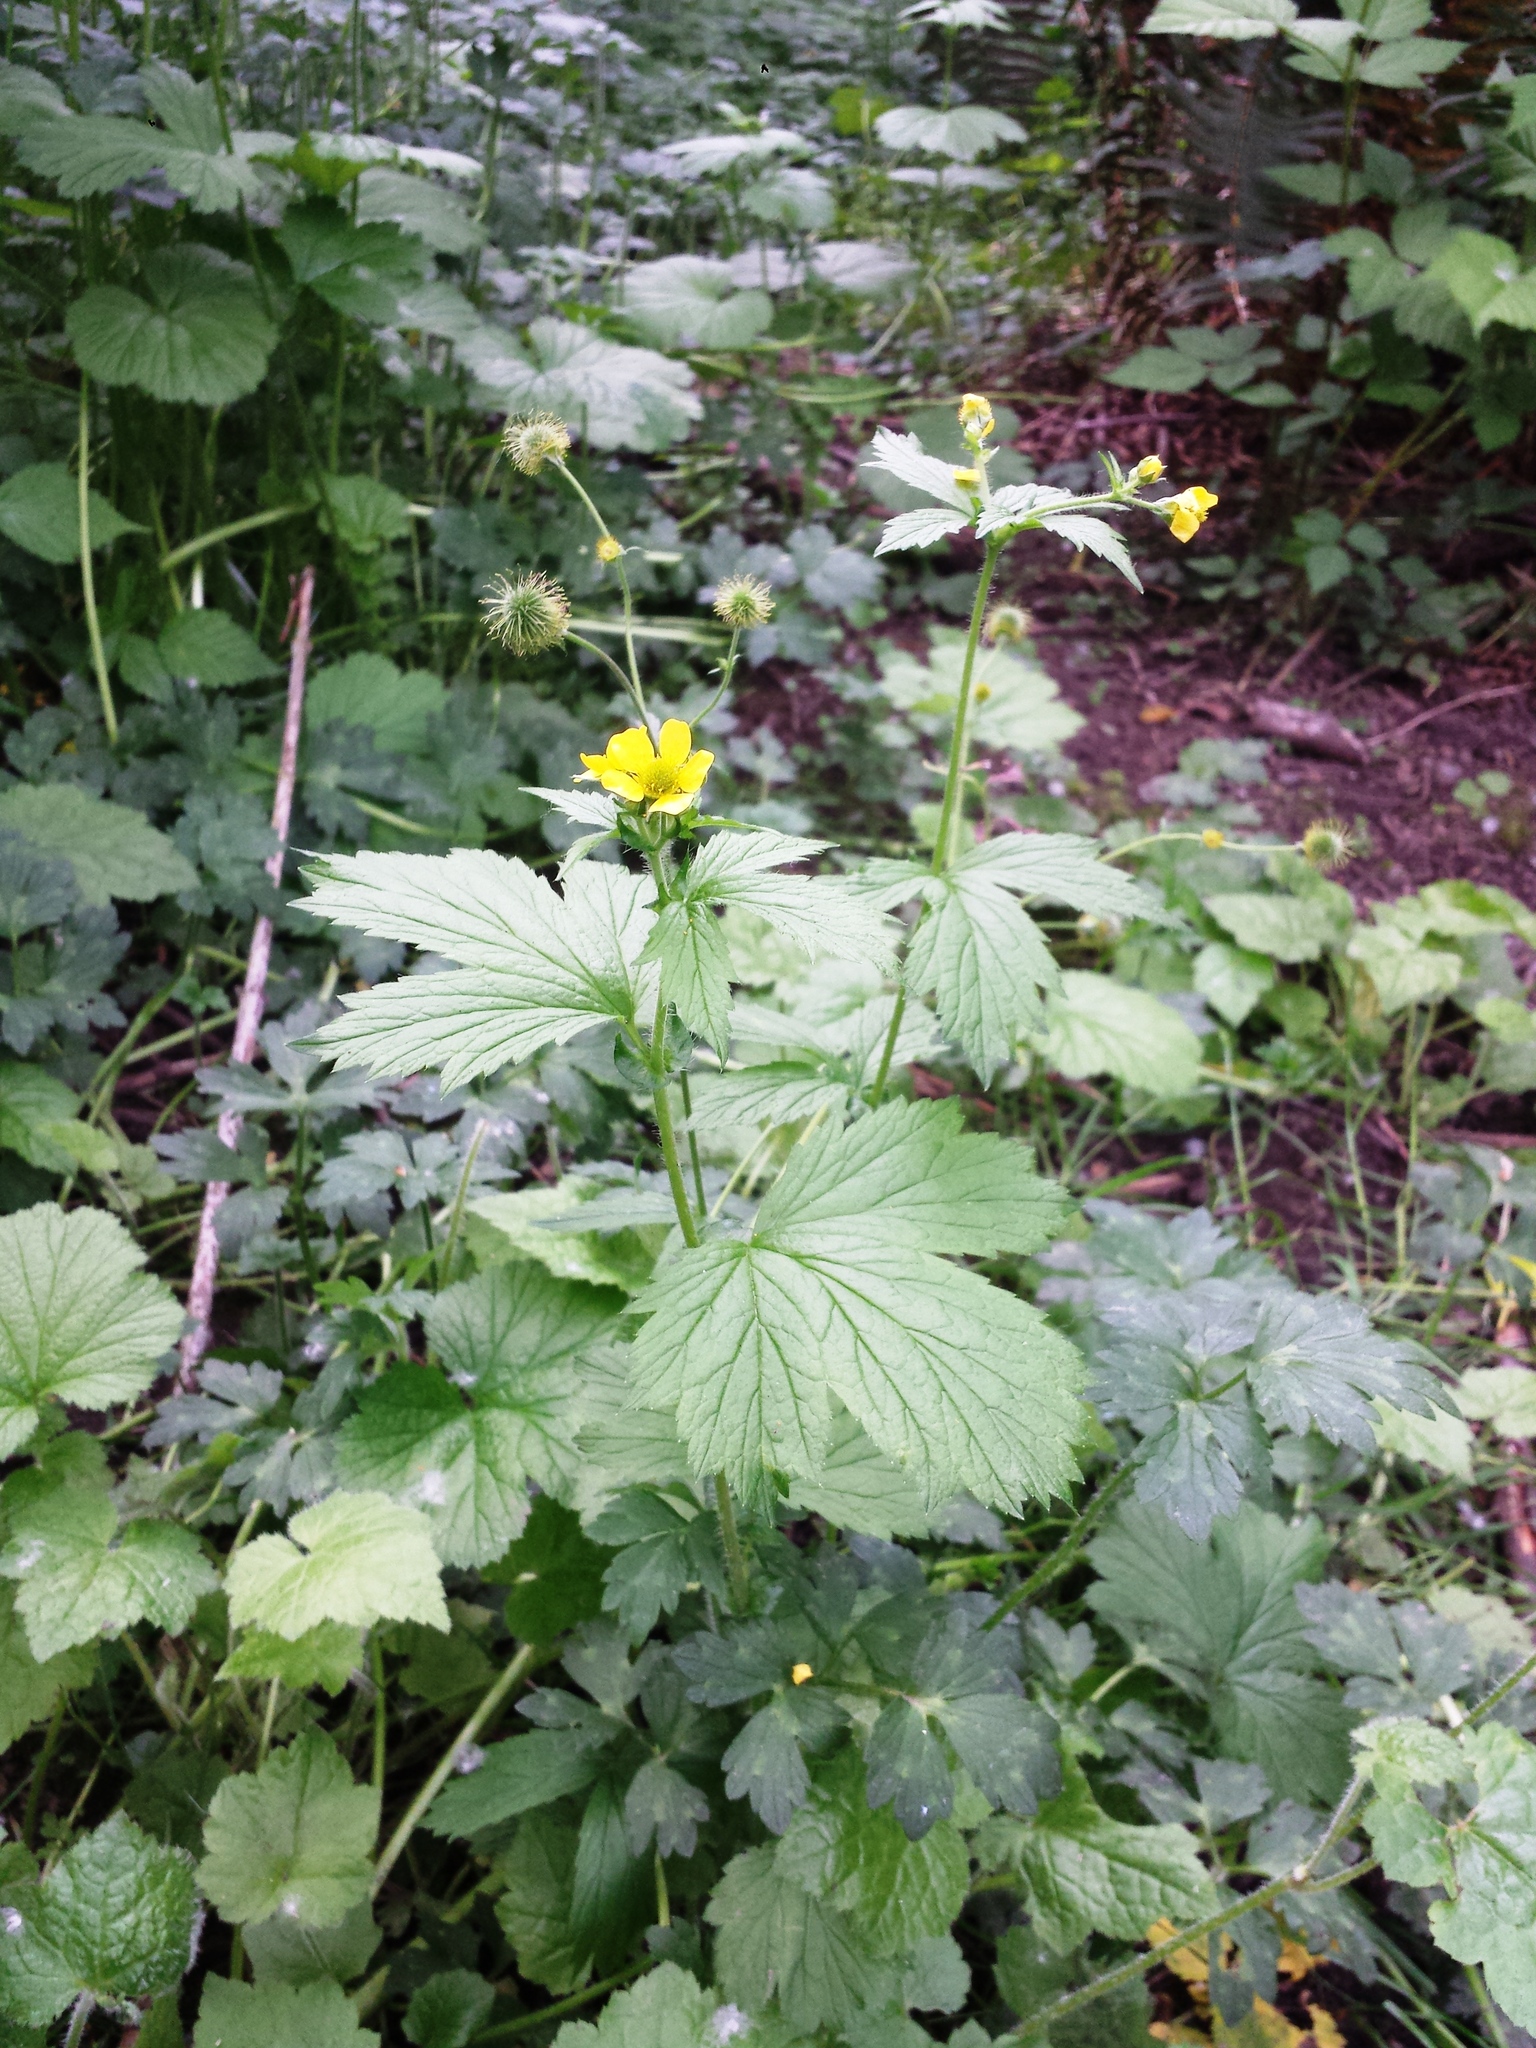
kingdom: Plantae
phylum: Tracheophyta
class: Magnoliopsida
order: Rosales
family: Rosaceae
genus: Geum
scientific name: Geum macrophyllum
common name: Large-leaved avens
